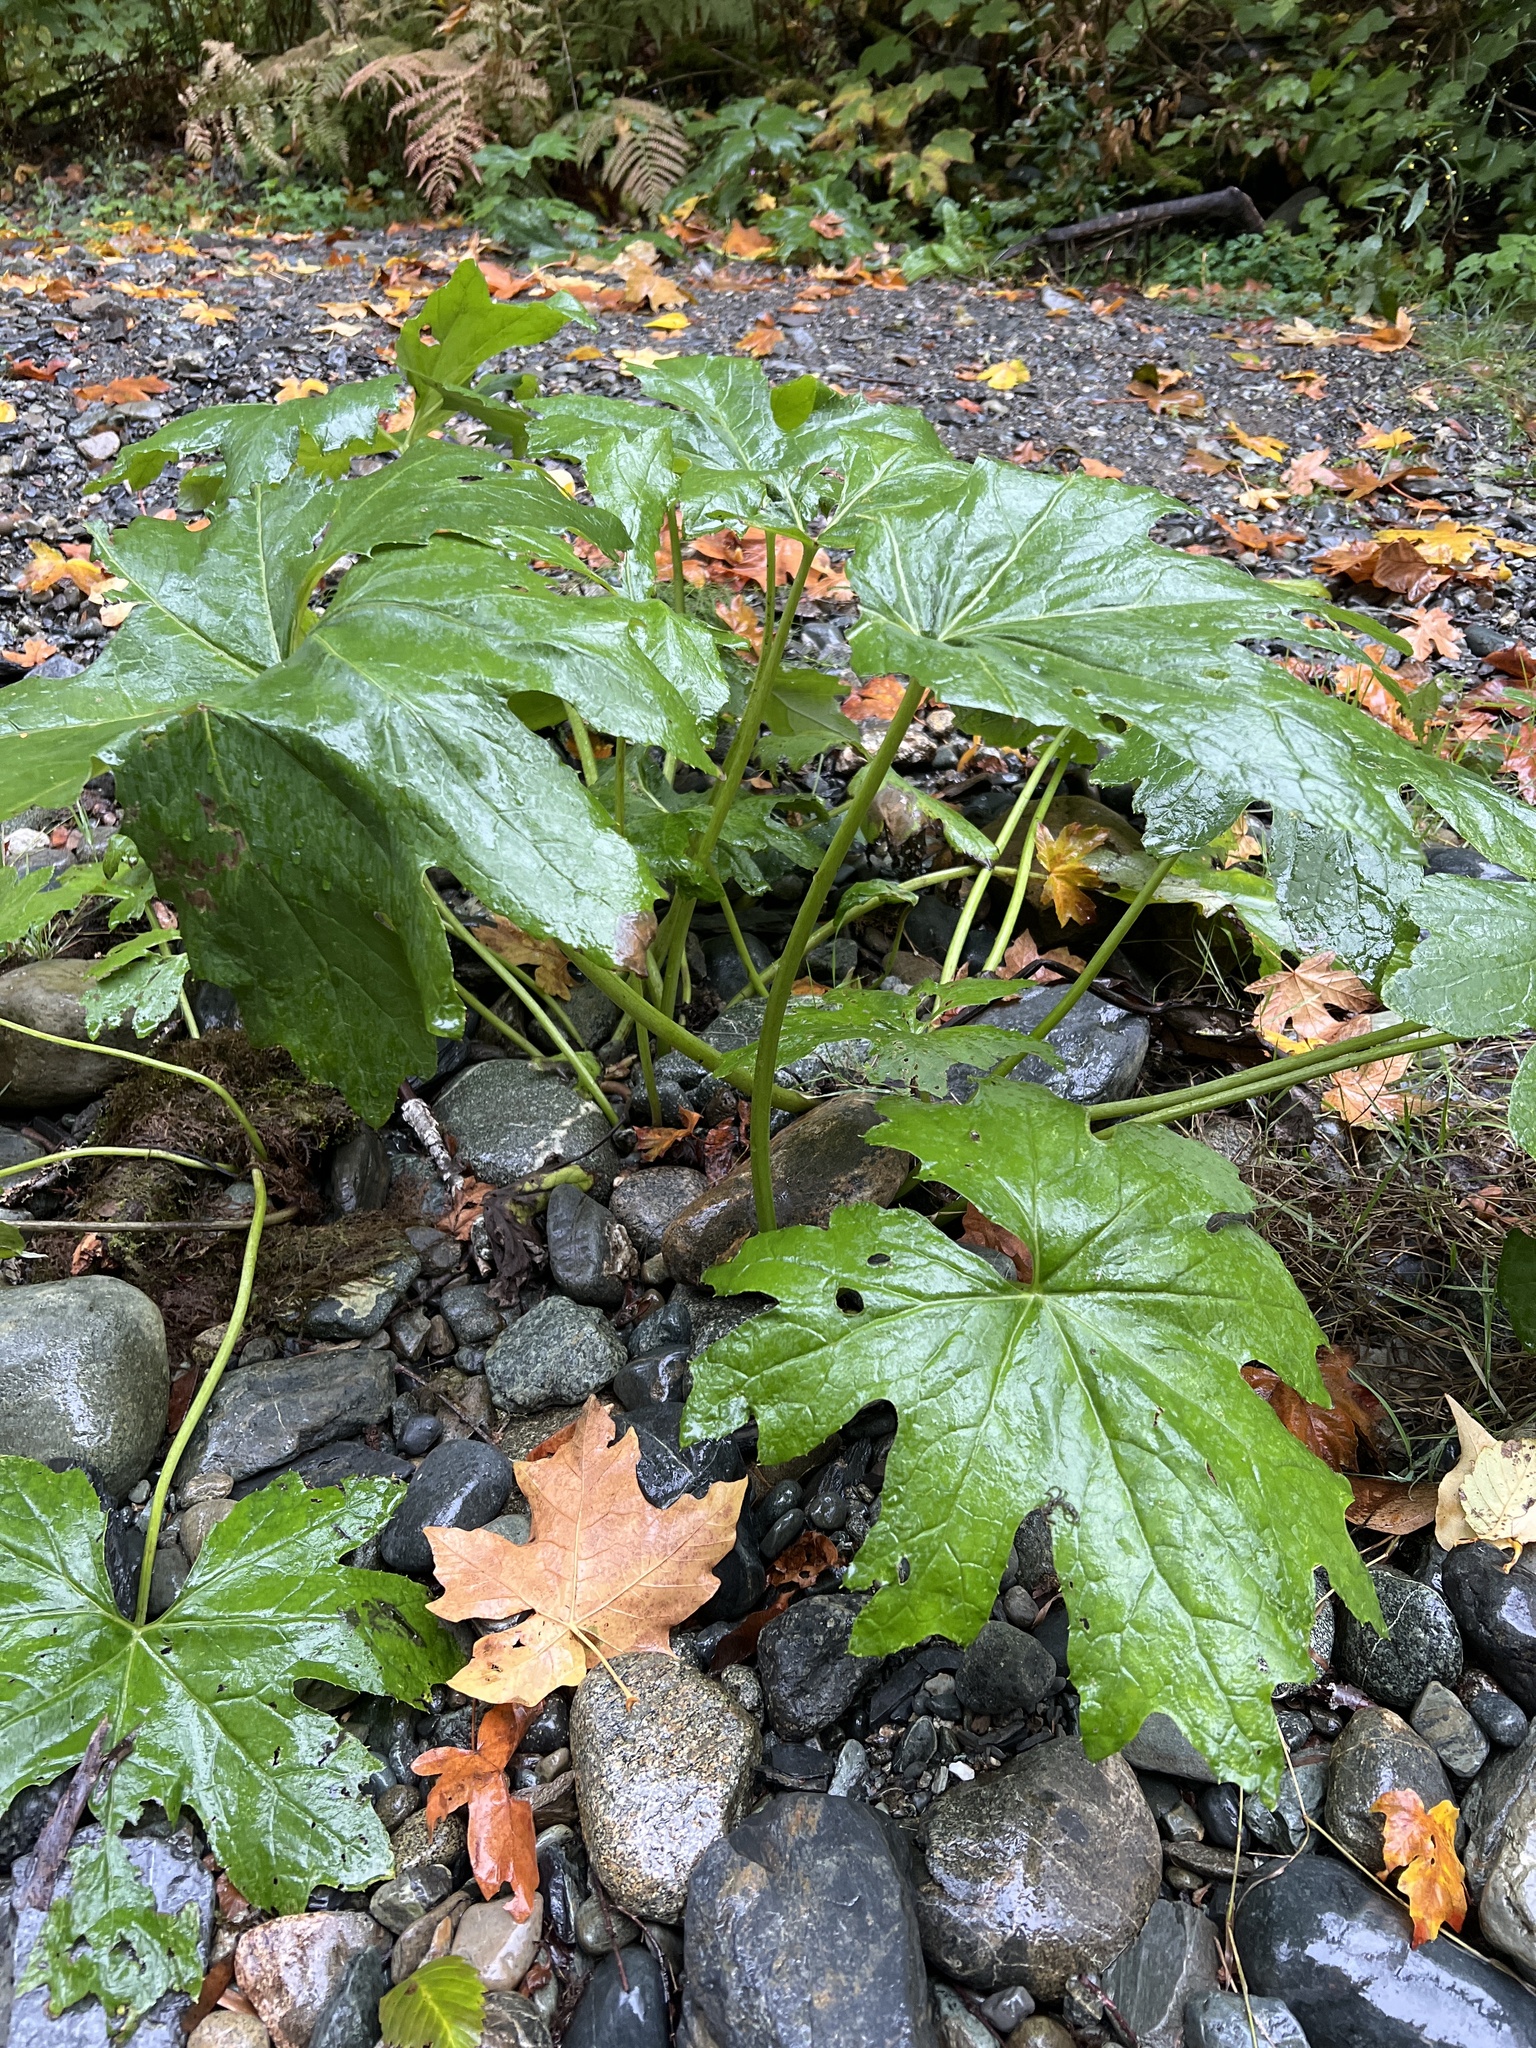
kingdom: Plantae
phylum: Tracheophyta
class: Magnoliopsida
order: Asterales
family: Asteraceae
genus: Petasites
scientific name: Petasites frigidus
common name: Arctic butterbur
